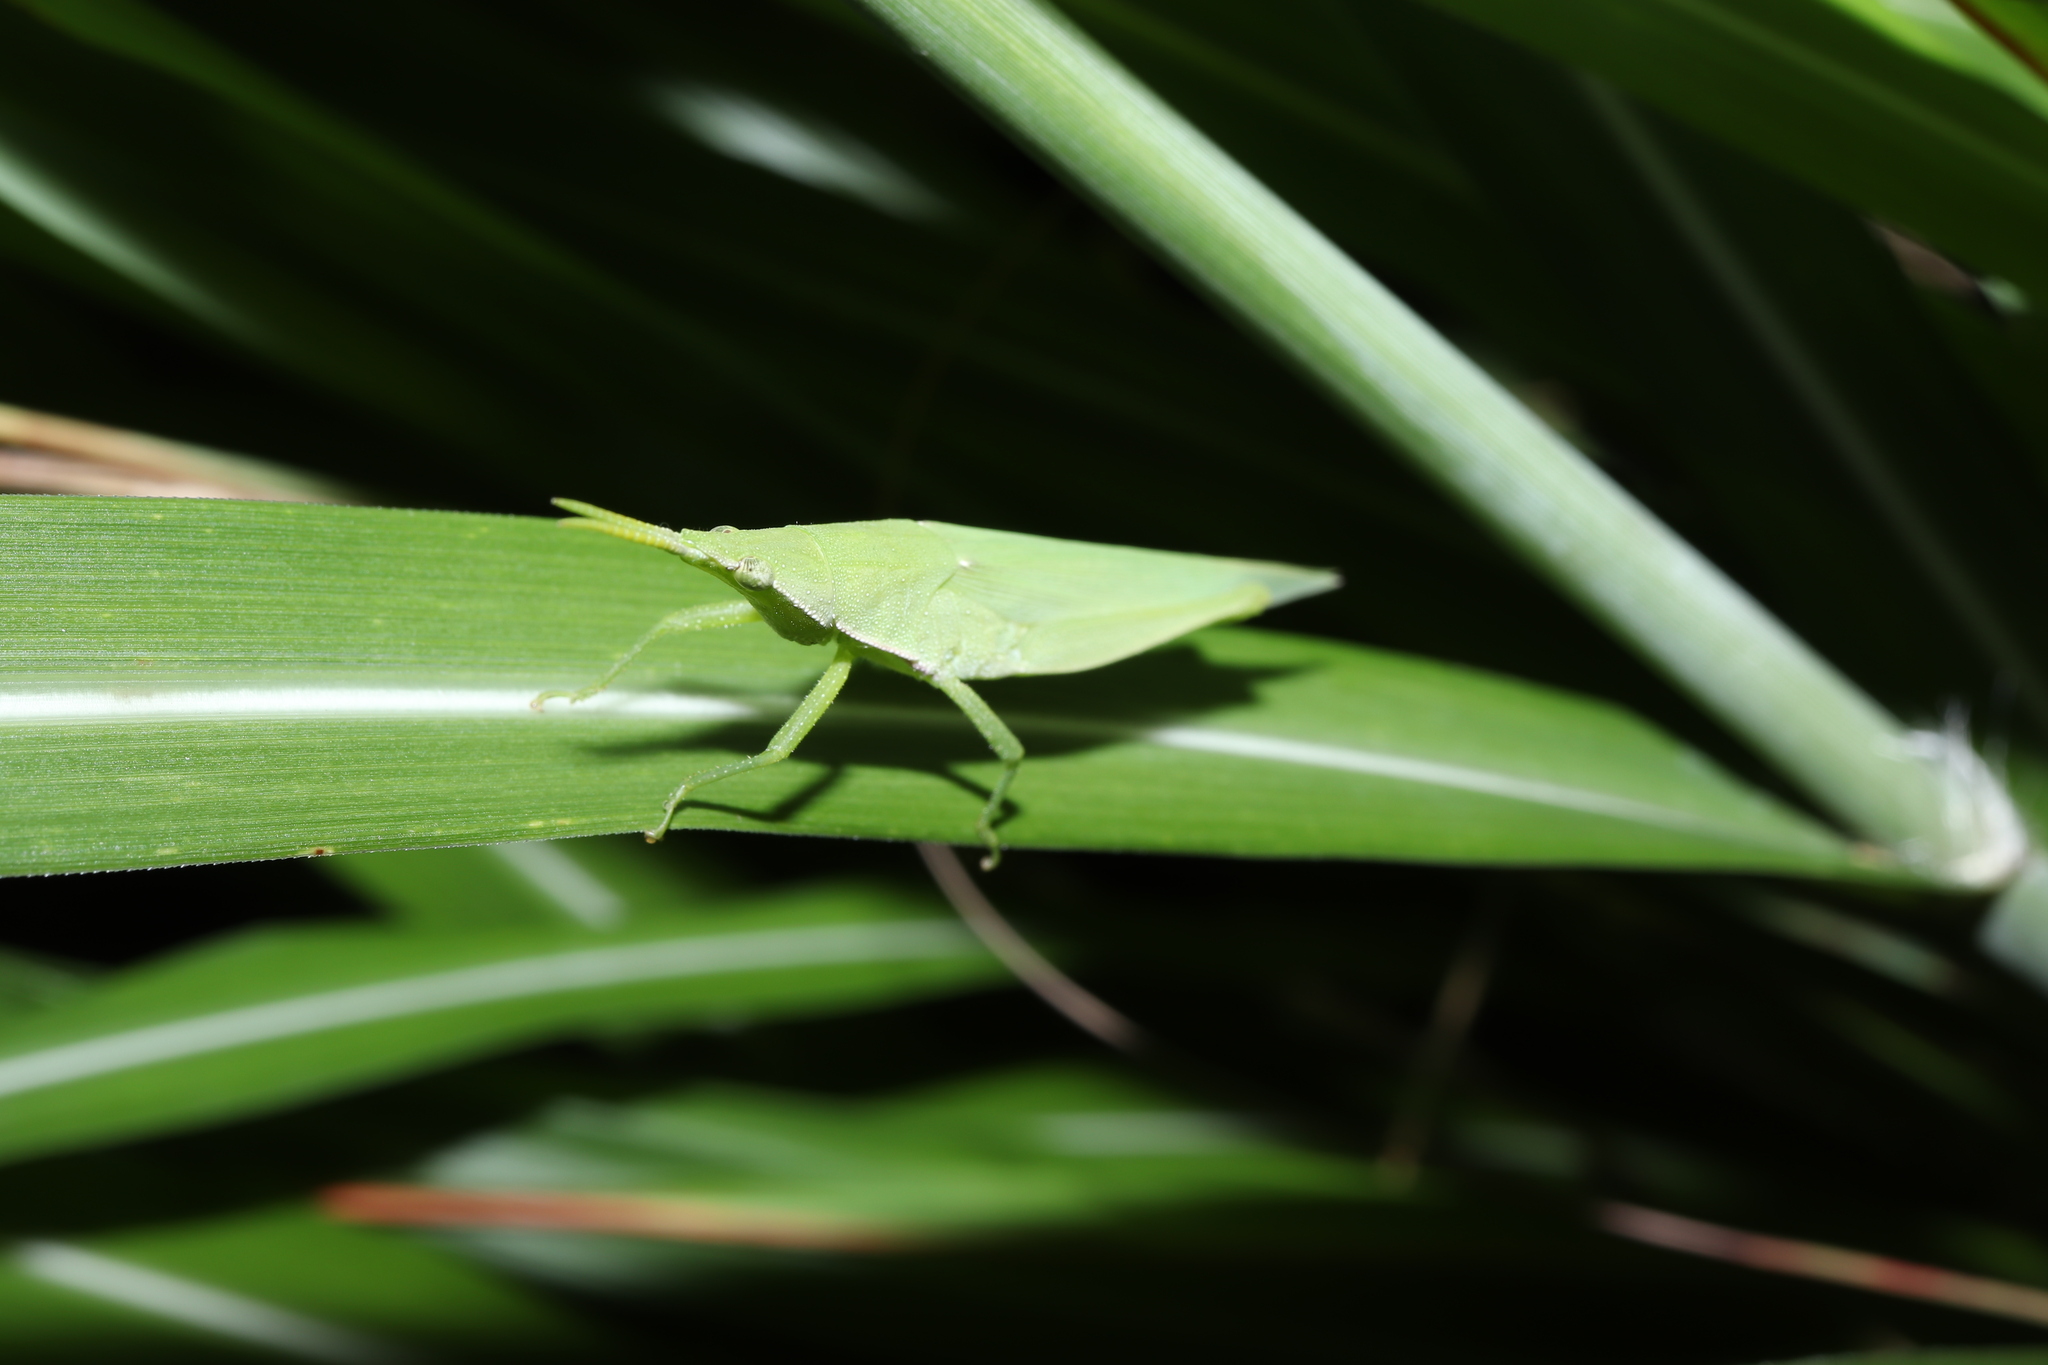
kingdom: Animalia
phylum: Arthropoda
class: Insecta
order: Orthoptera
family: Pyrgomorphidae
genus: Atractomorpha
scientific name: Atractomorpha lata
